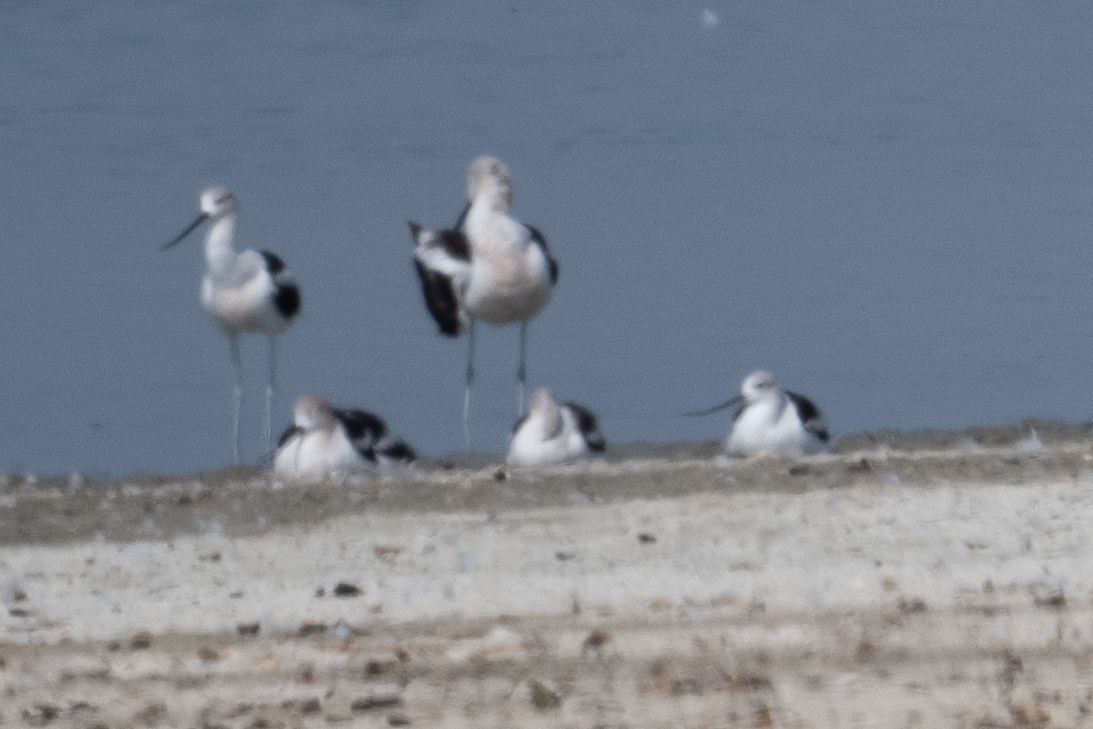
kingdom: Animalia
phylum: Chordata
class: Aves
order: Charadriiformes
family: Recurvirostridae
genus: Recurvirostra
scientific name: Recurvirostra americana
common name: American avocet
